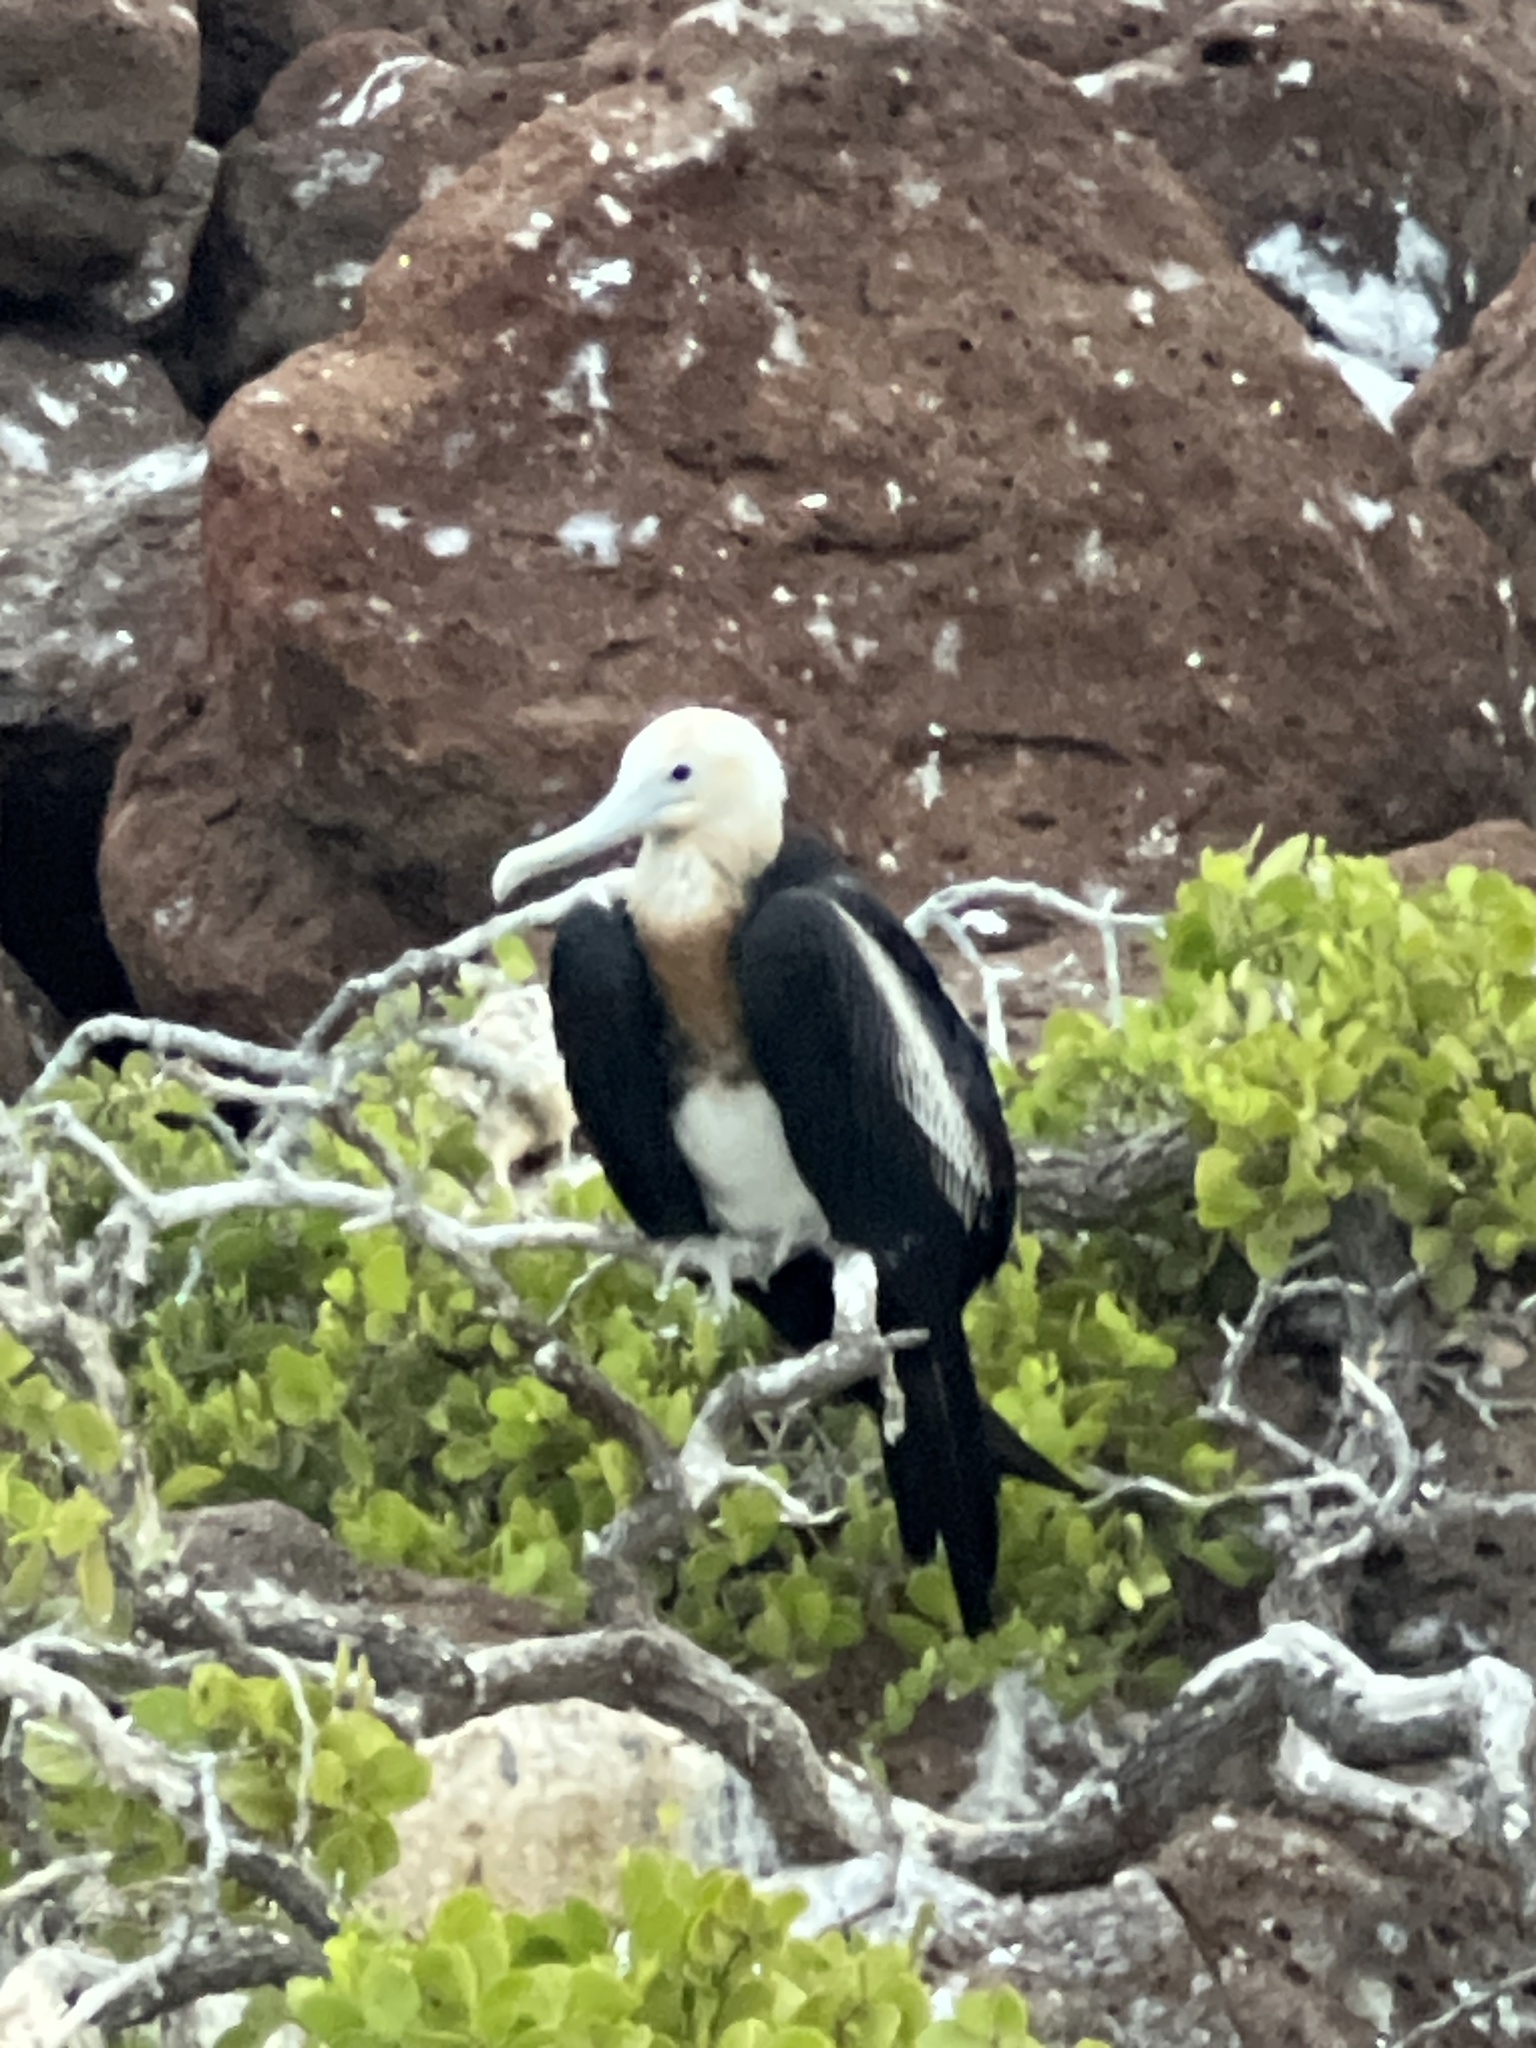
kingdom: Animalia
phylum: Chordata
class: Aves
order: Suliformes
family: Fregatidae
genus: Fregata
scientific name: Fregata minor
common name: Great frigatebird
